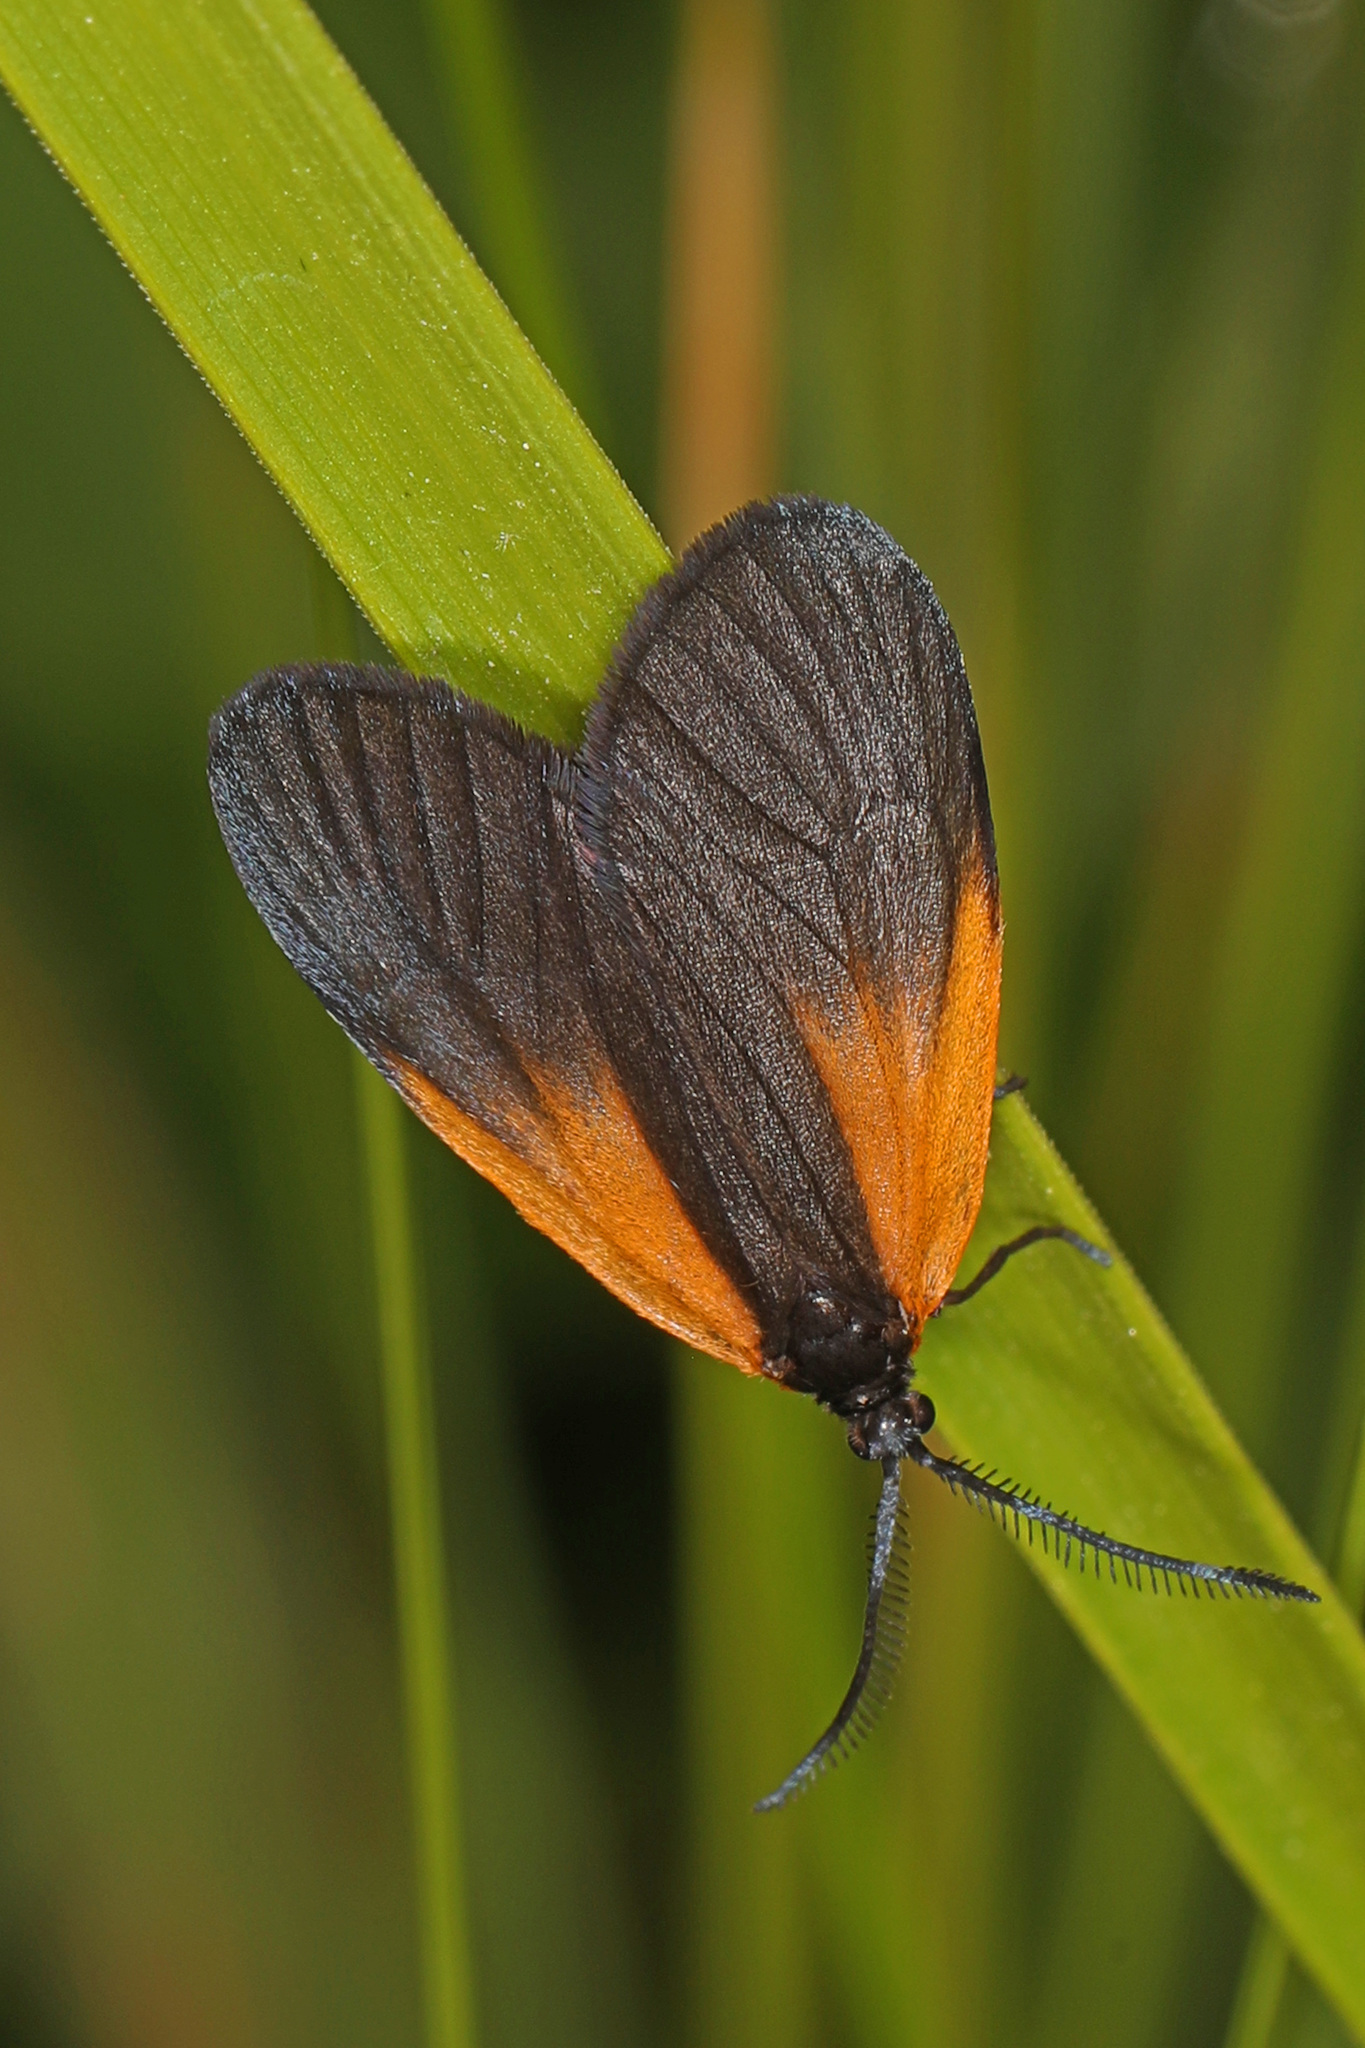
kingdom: Animalia
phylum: Arthropoda
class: Insecta
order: Lepidoptera
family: Zygaenidae
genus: Malthaca
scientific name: Malthaca dimidiata
